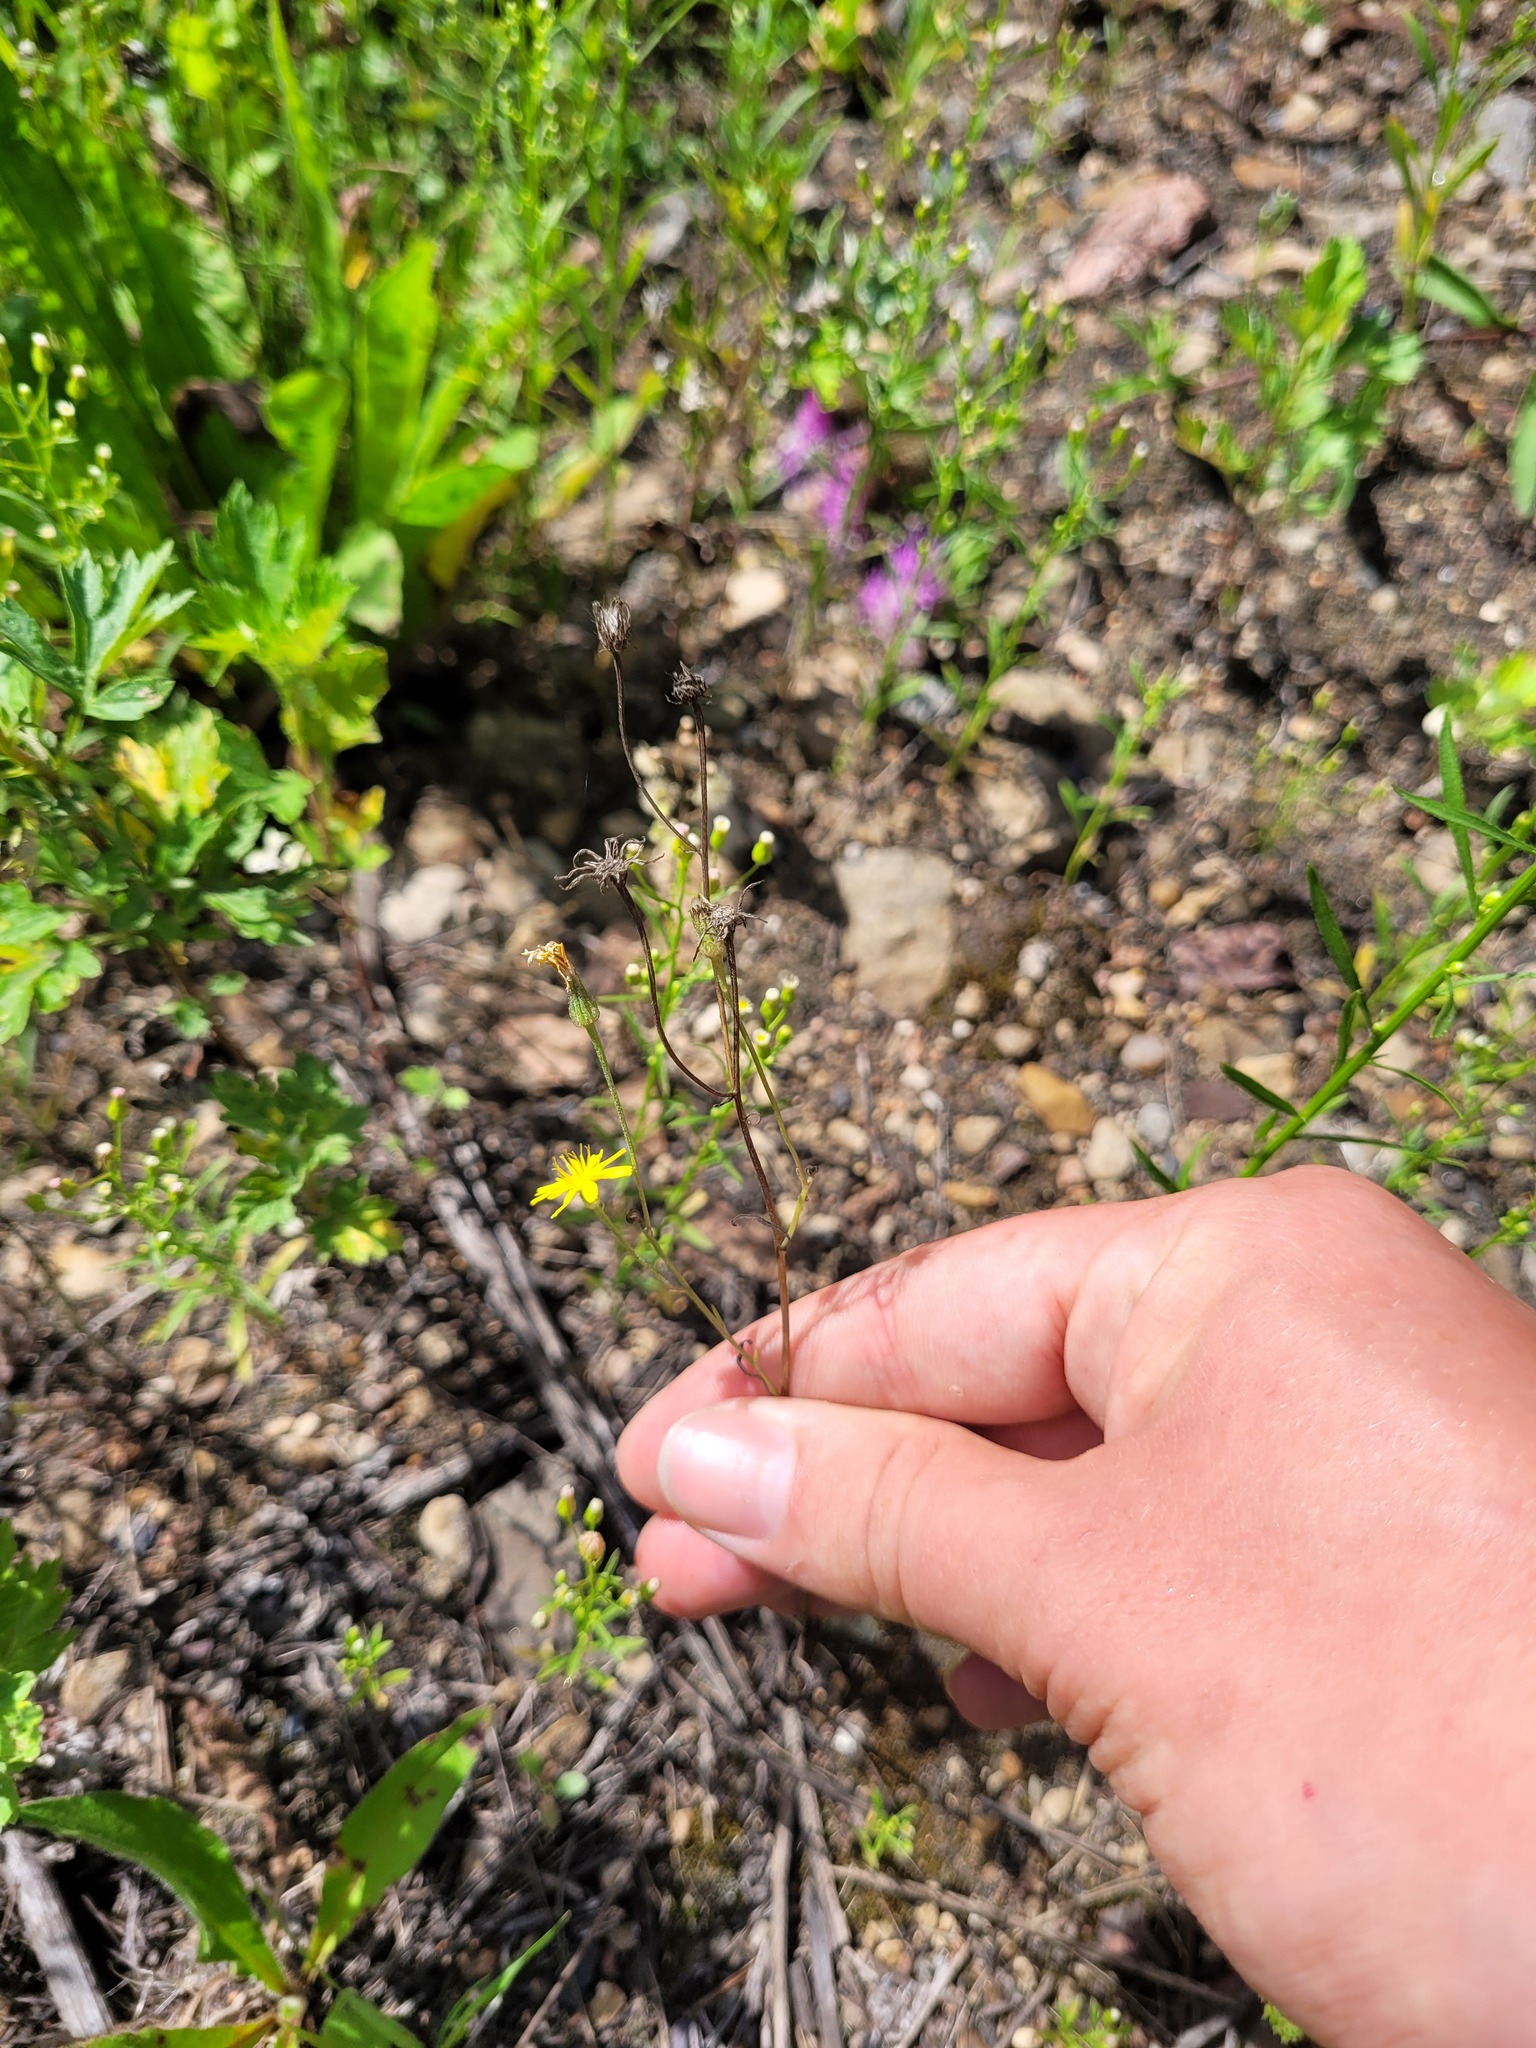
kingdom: Plantae
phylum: Tracheophyta
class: Magnoliopsida
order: Asterales
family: Asteraceae
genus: Crepis
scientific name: Crepis tectorum
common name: Narrow-leaved hawk's-beard
